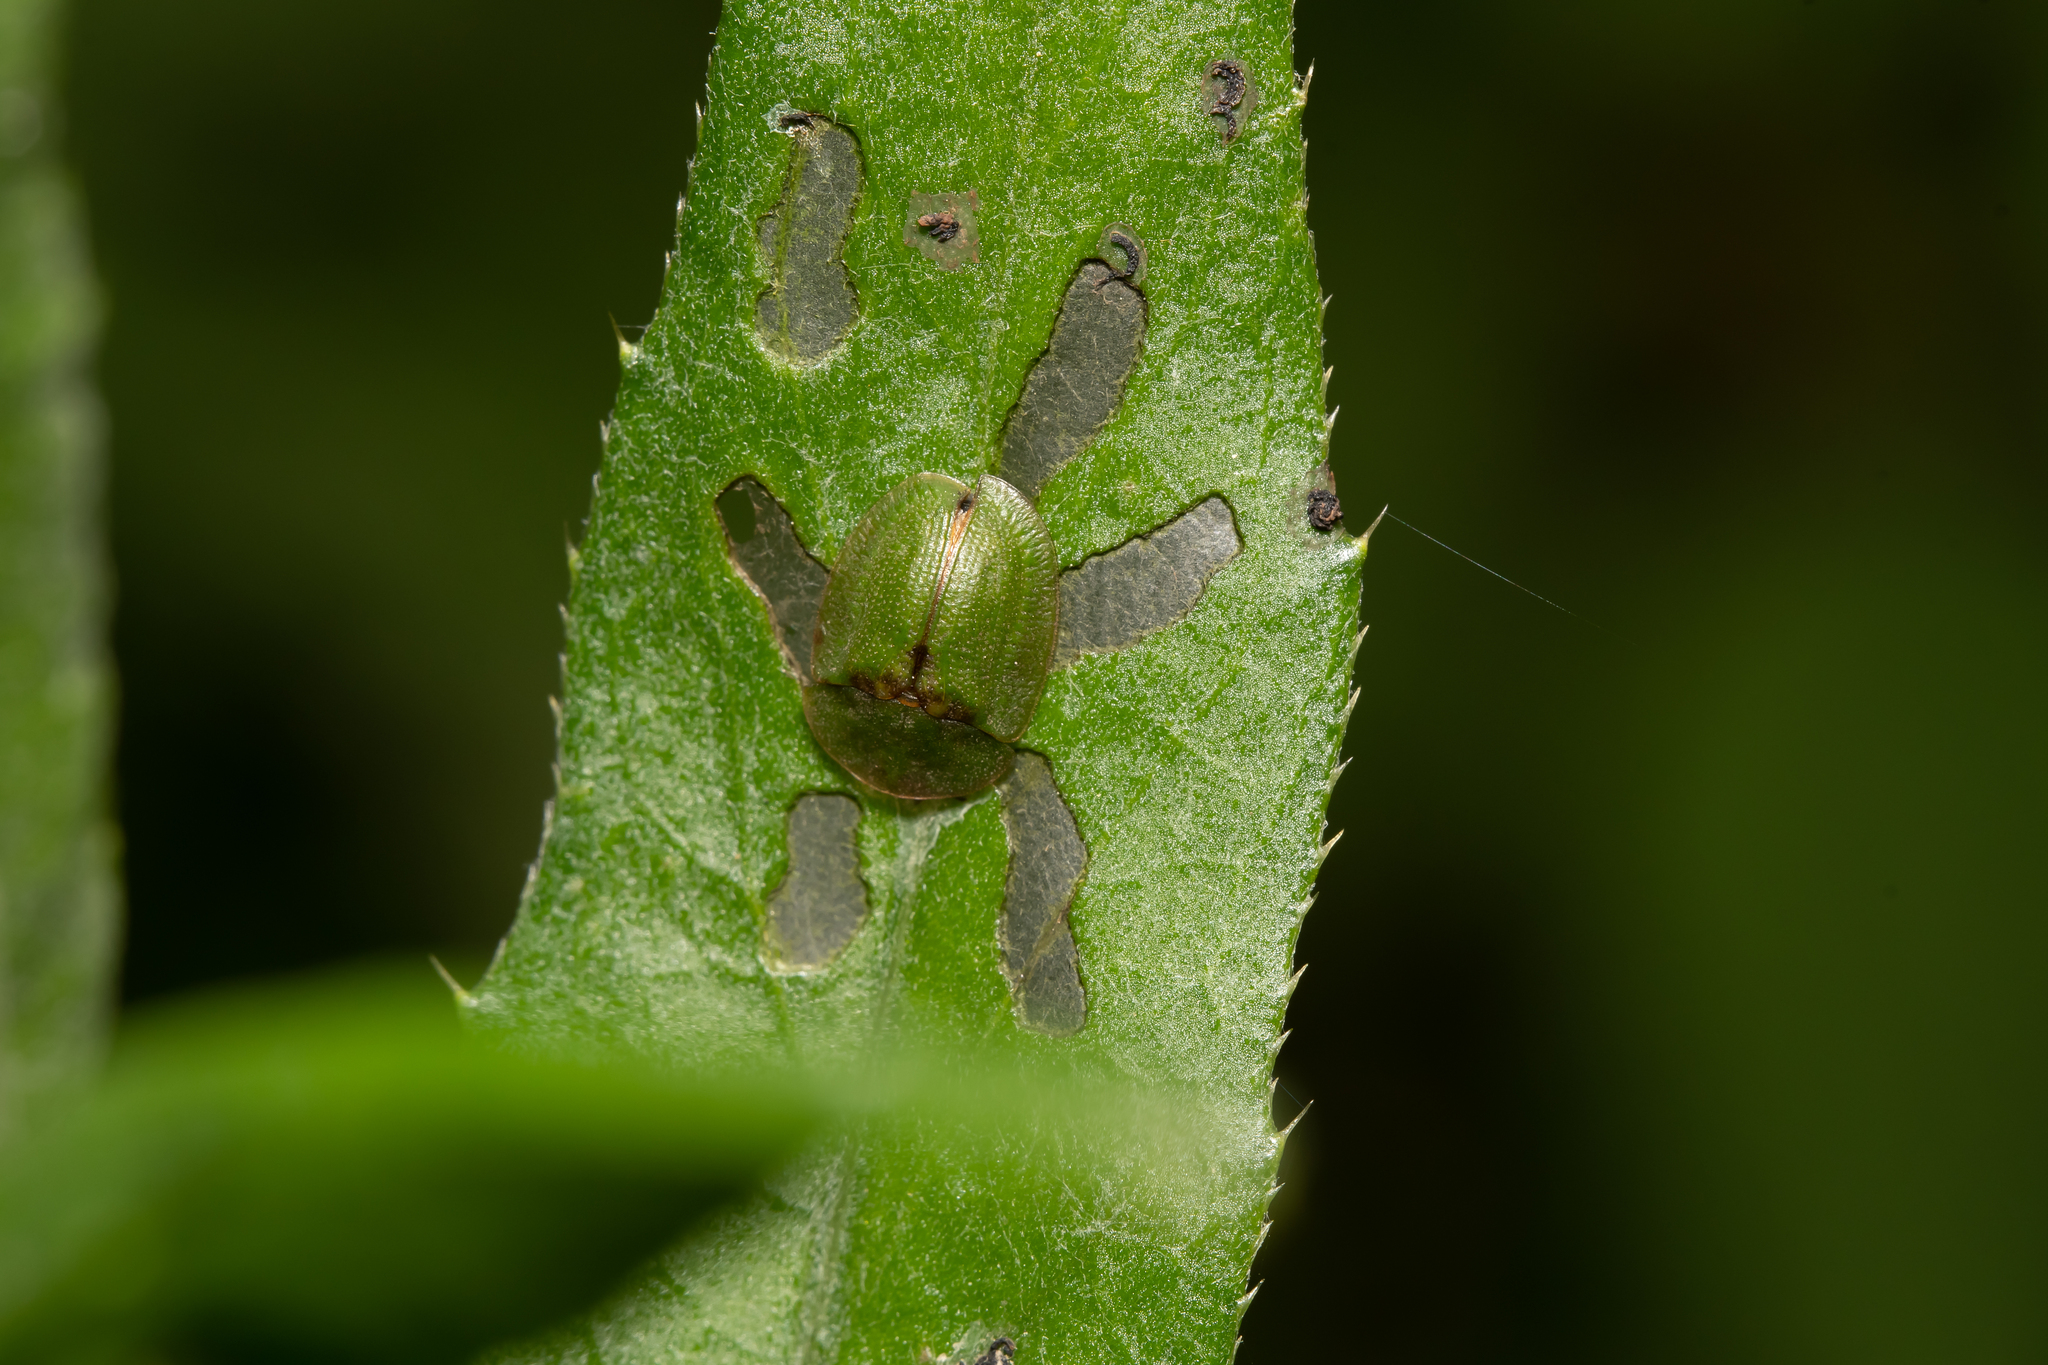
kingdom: Animalia
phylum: Arthropoda
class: Insecta
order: Coleoptera
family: Chrysomelidae
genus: Cassida
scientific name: Cassida rubiginosa
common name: Thistle tortoise beetle
